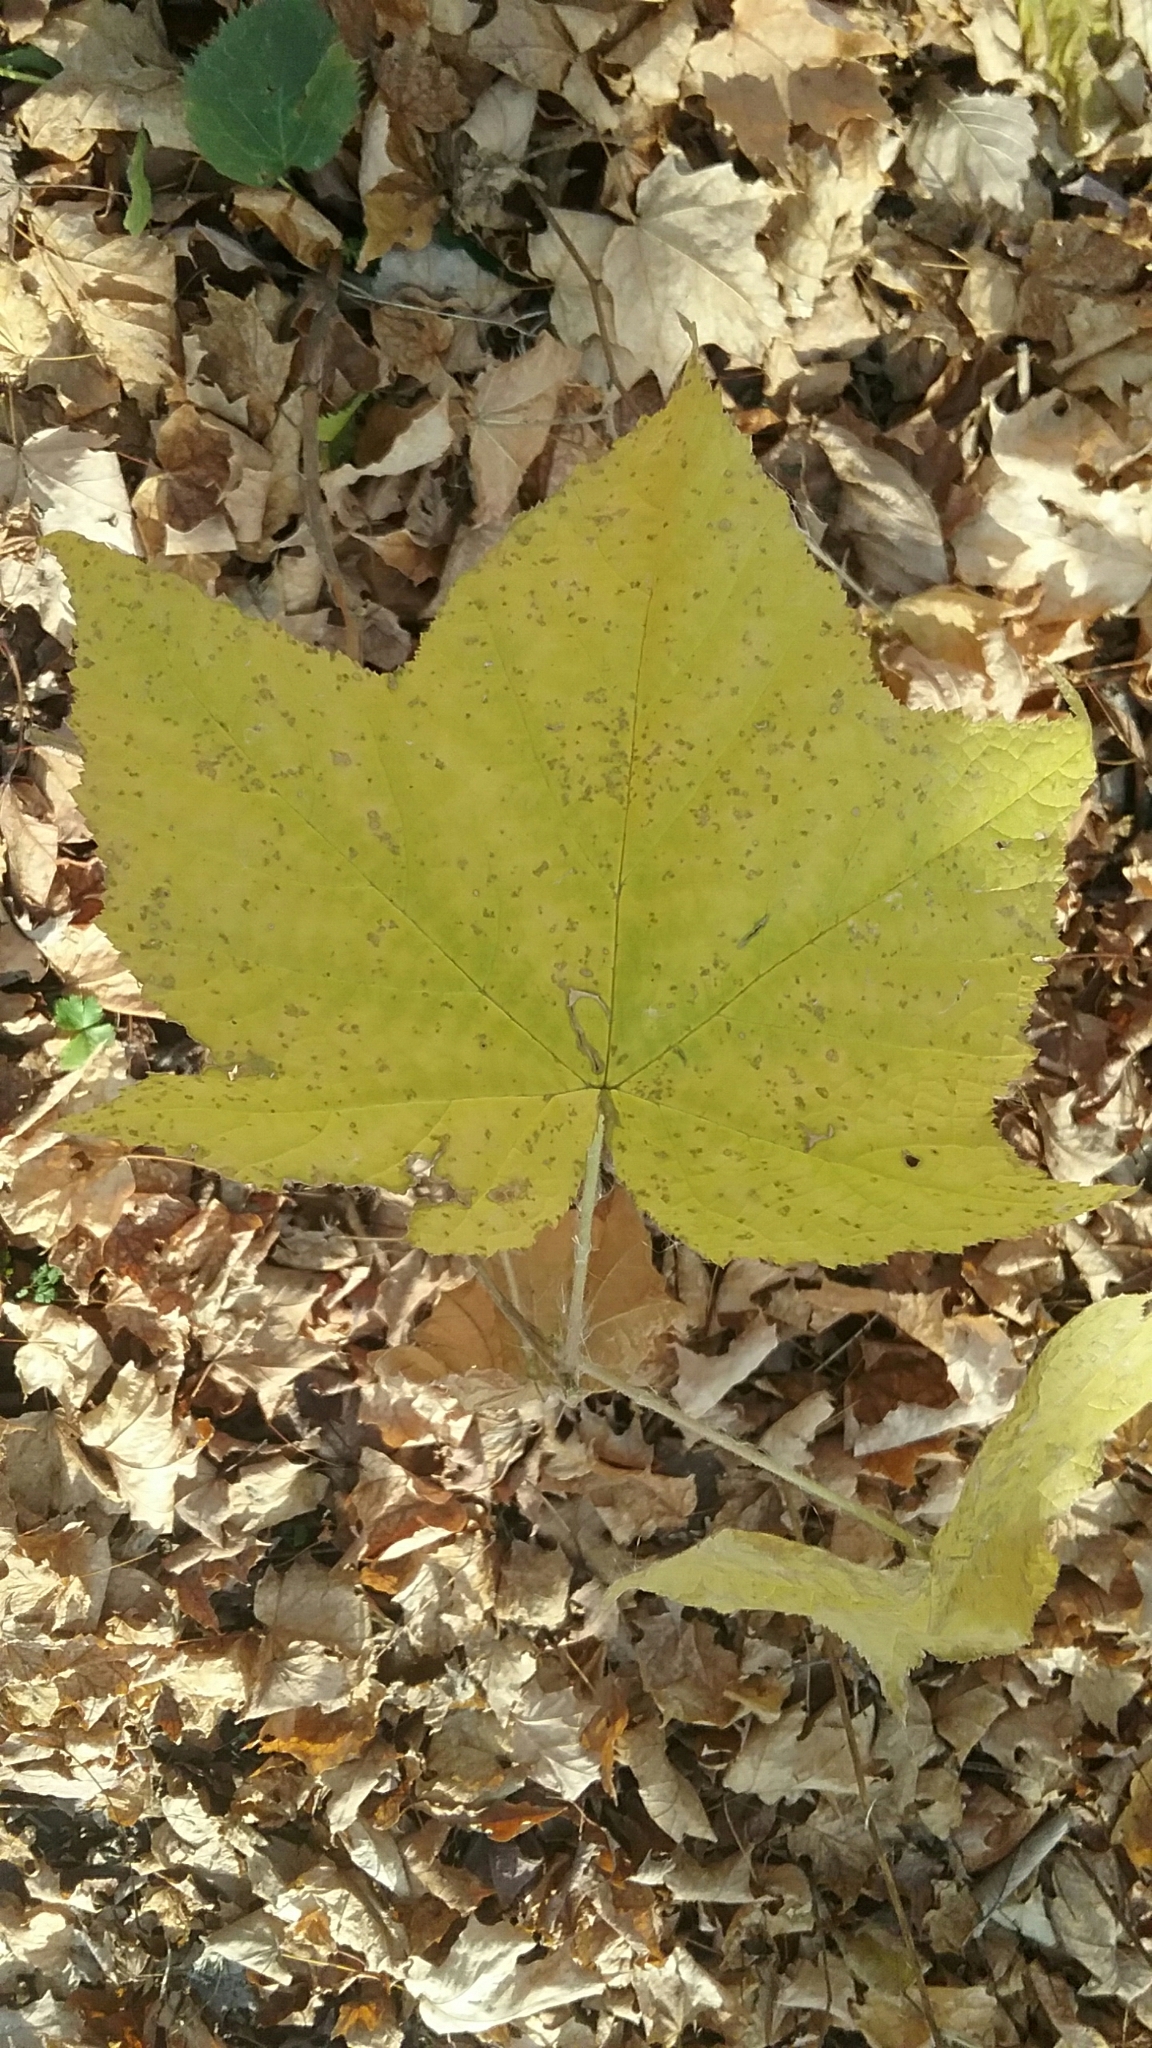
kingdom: Plantae
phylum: Tracheophyta
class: Magnoliopsida
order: Rosales
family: Rosaceae
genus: Rubus
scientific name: Rubus odoratus
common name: Purple-flowered raspberry
